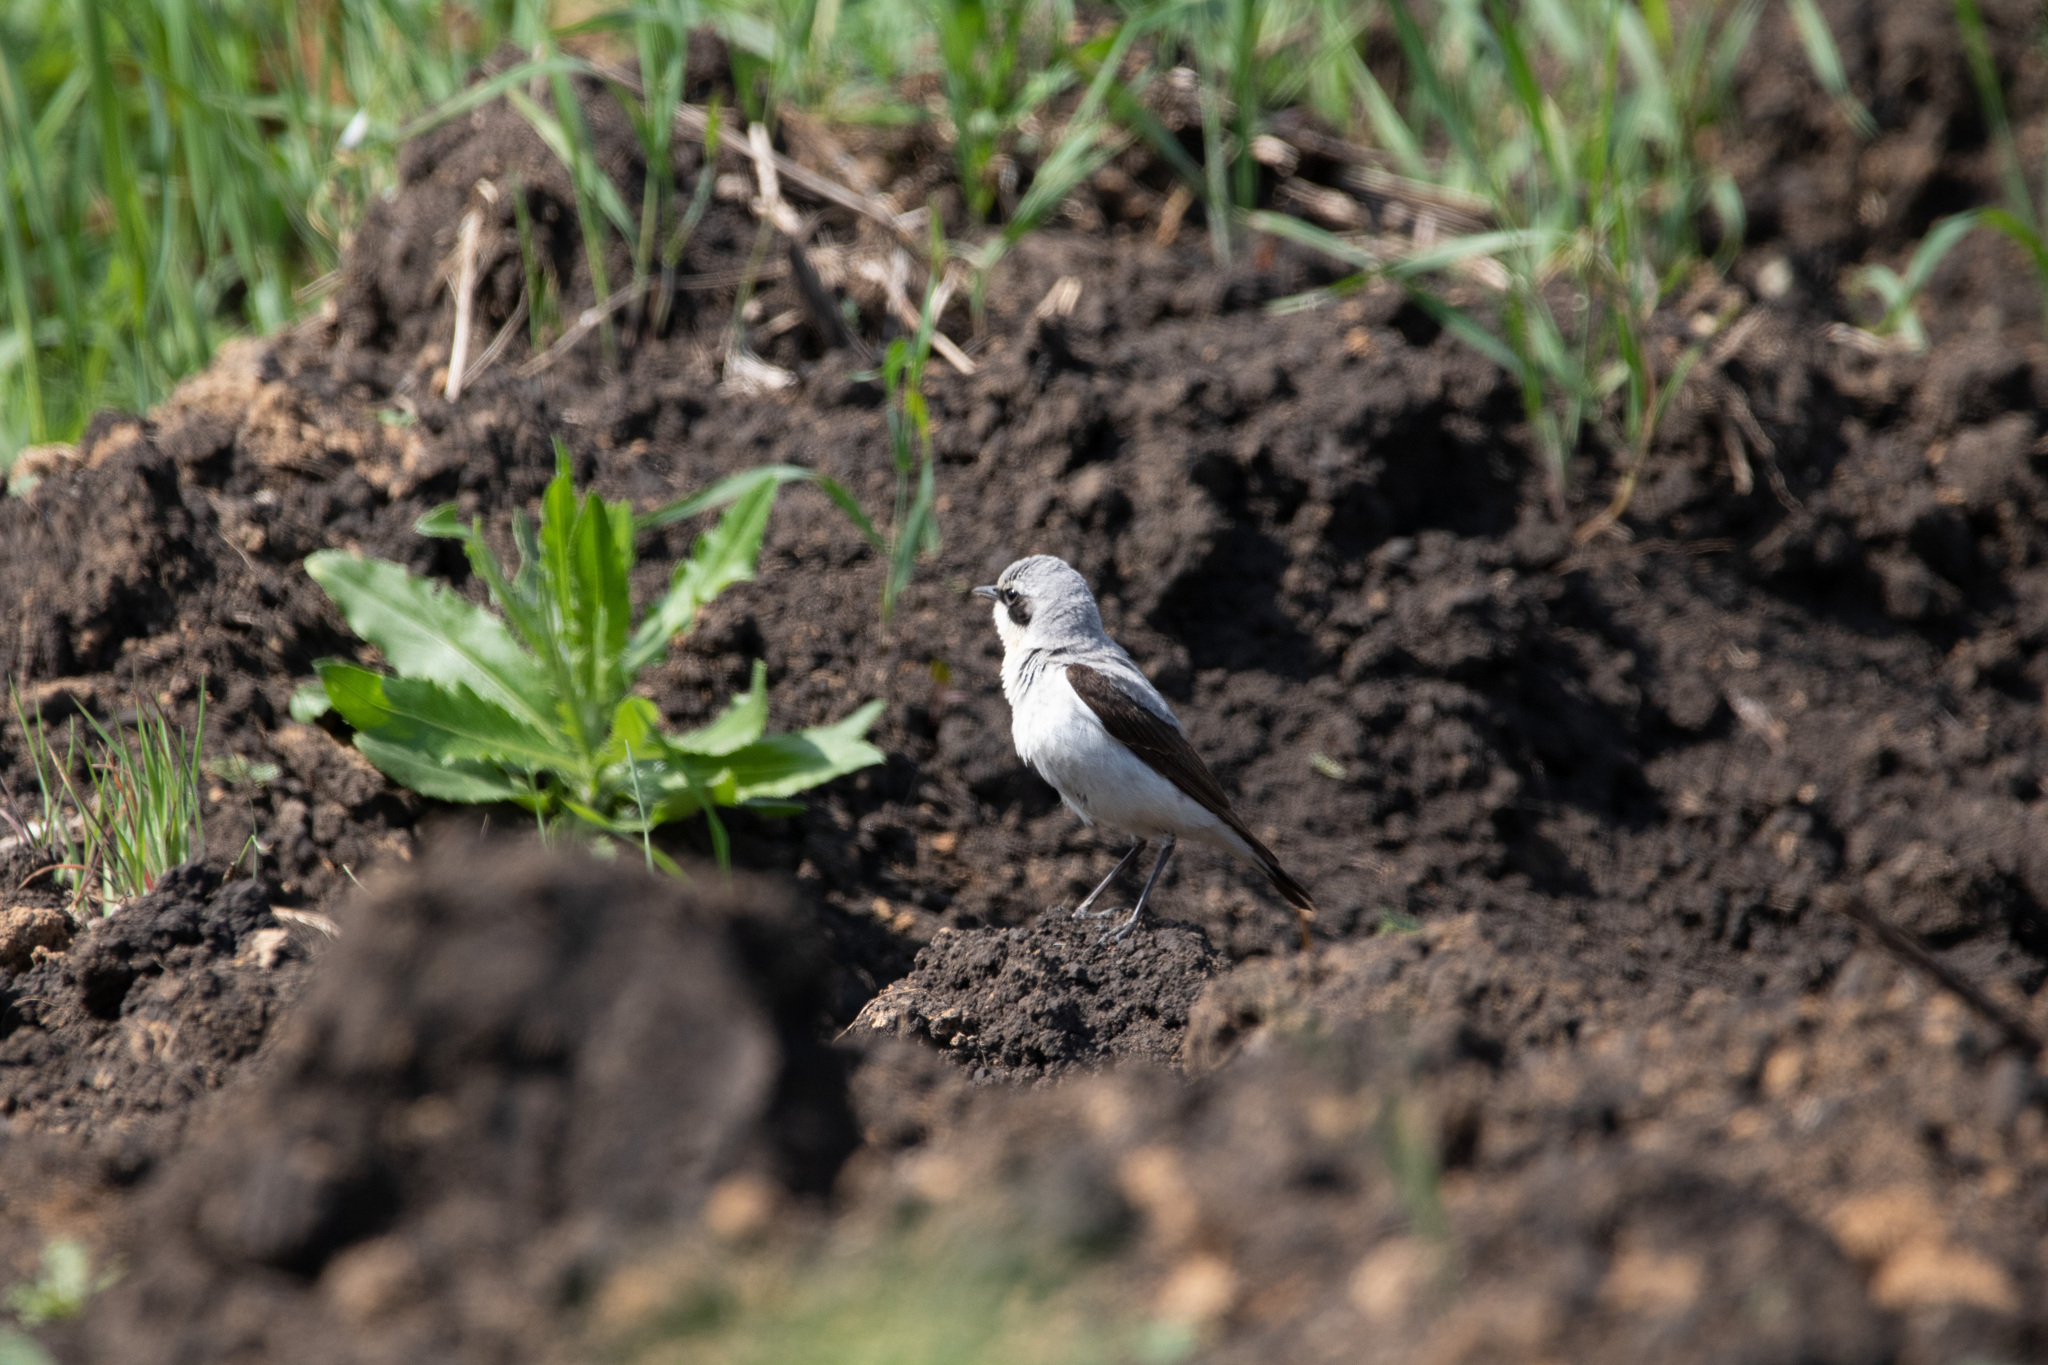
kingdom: Animalia
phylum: Chordata
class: Aves
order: Passeriformes
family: Muscicapidae
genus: Oenanthe
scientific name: Oenanthe oenanthe
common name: Northern wheatear
